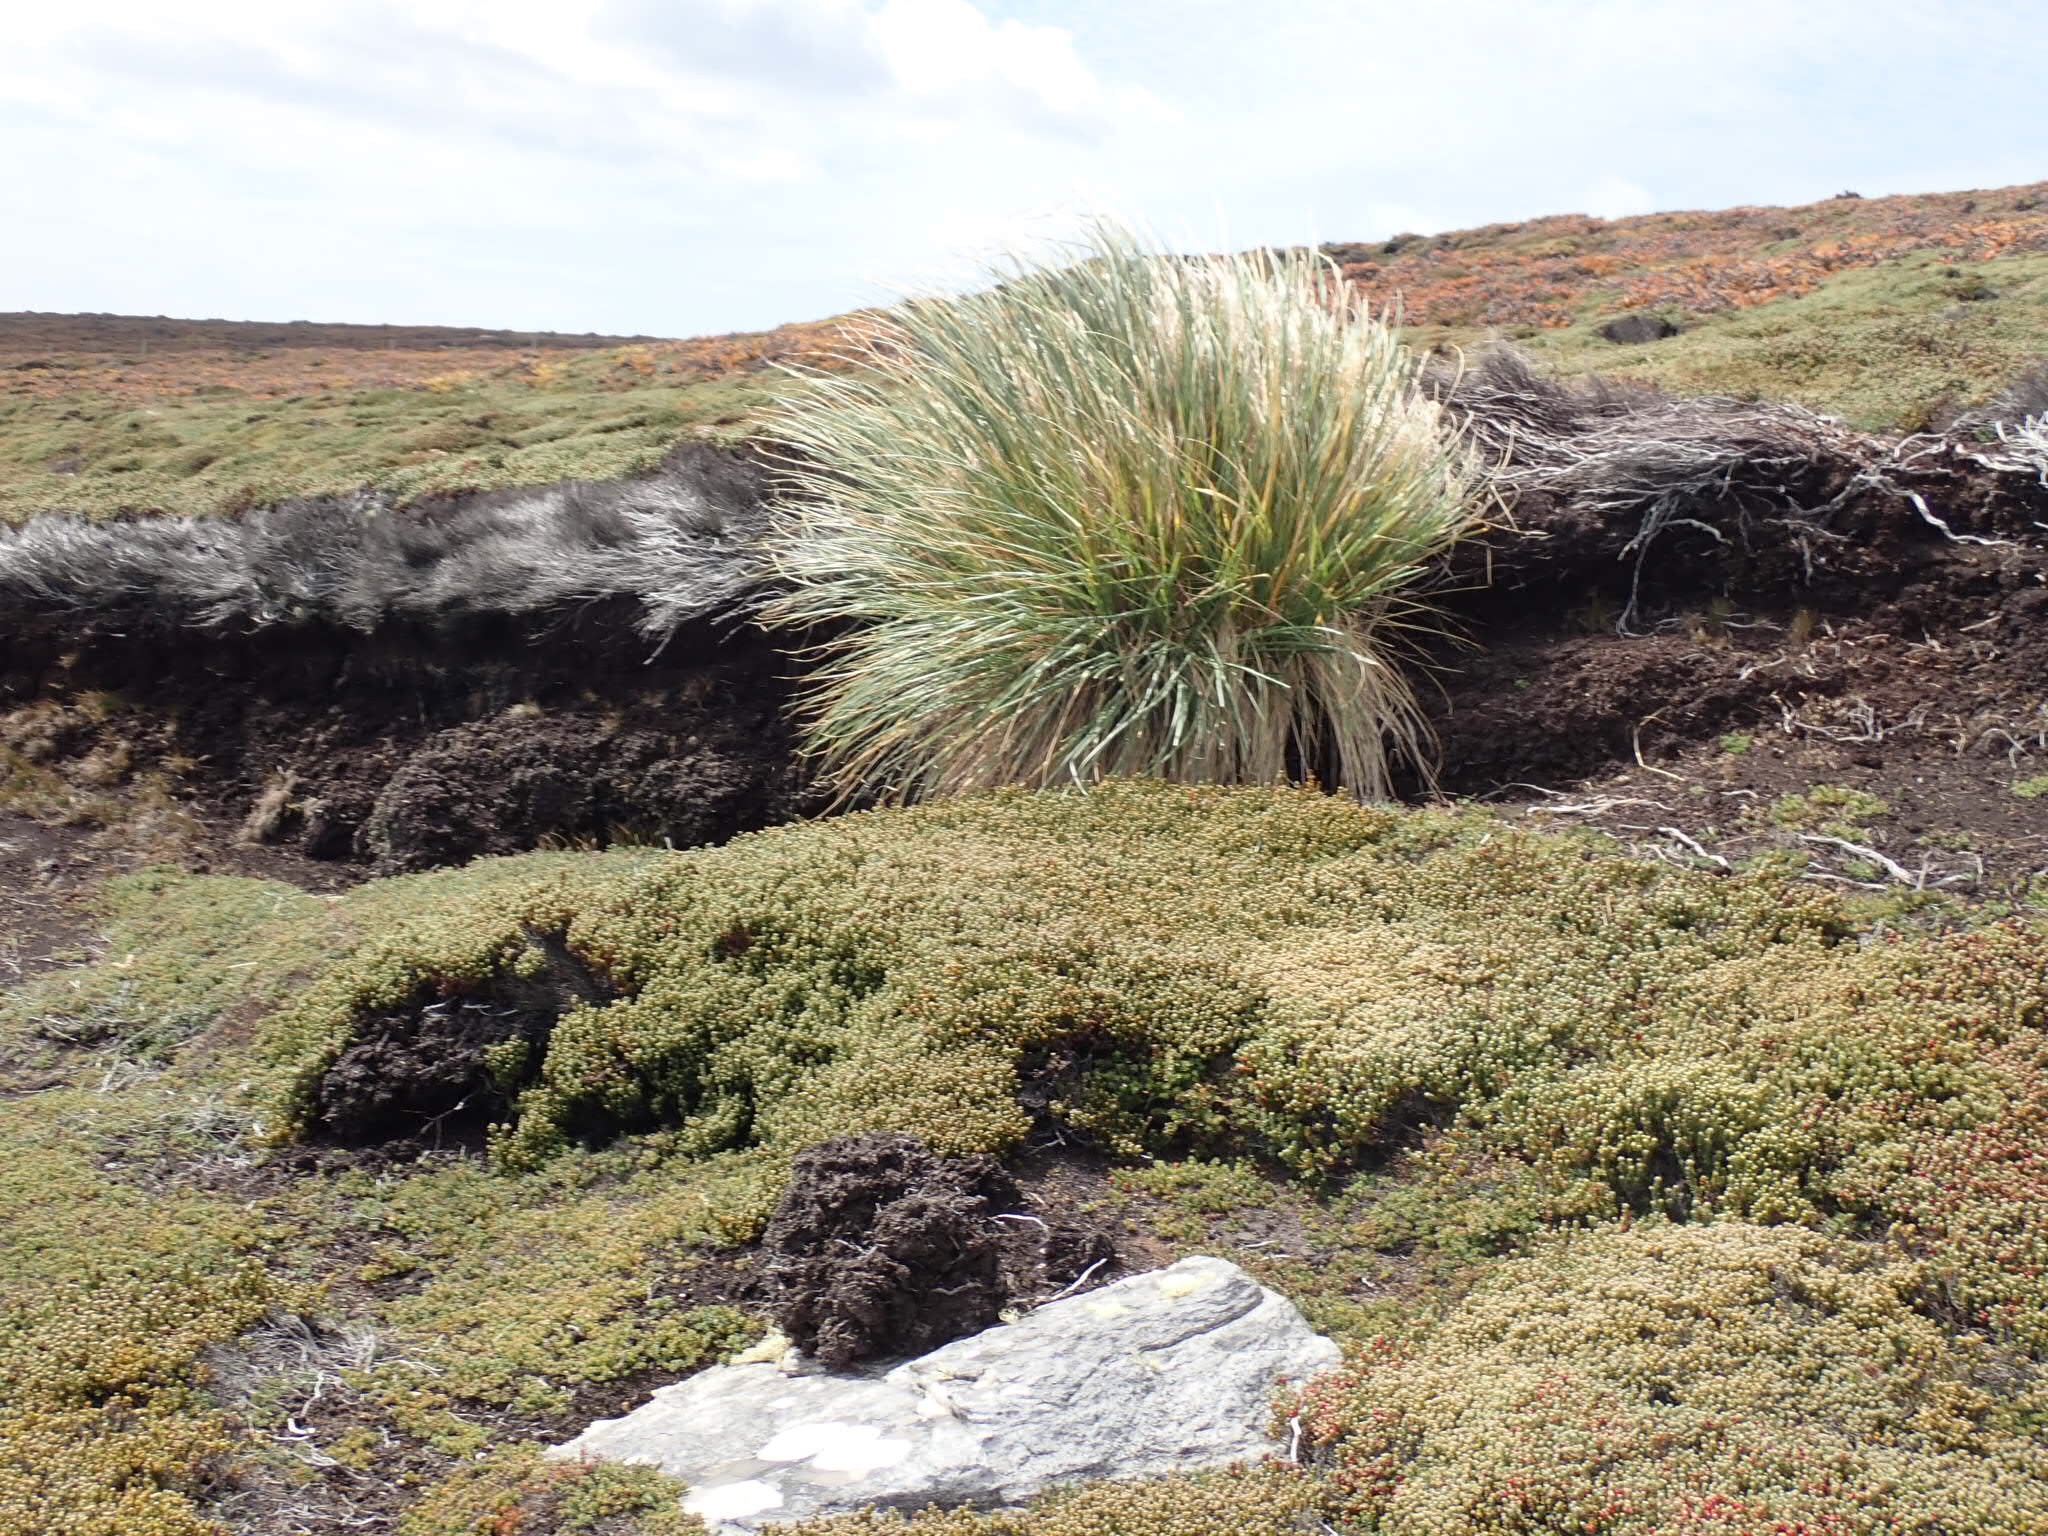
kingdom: Plantae
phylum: Tracheophyta
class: Liliopsida
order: Poales
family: Poaceae
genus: Poa
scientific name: Poa flabellata
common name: Tussac-grass
